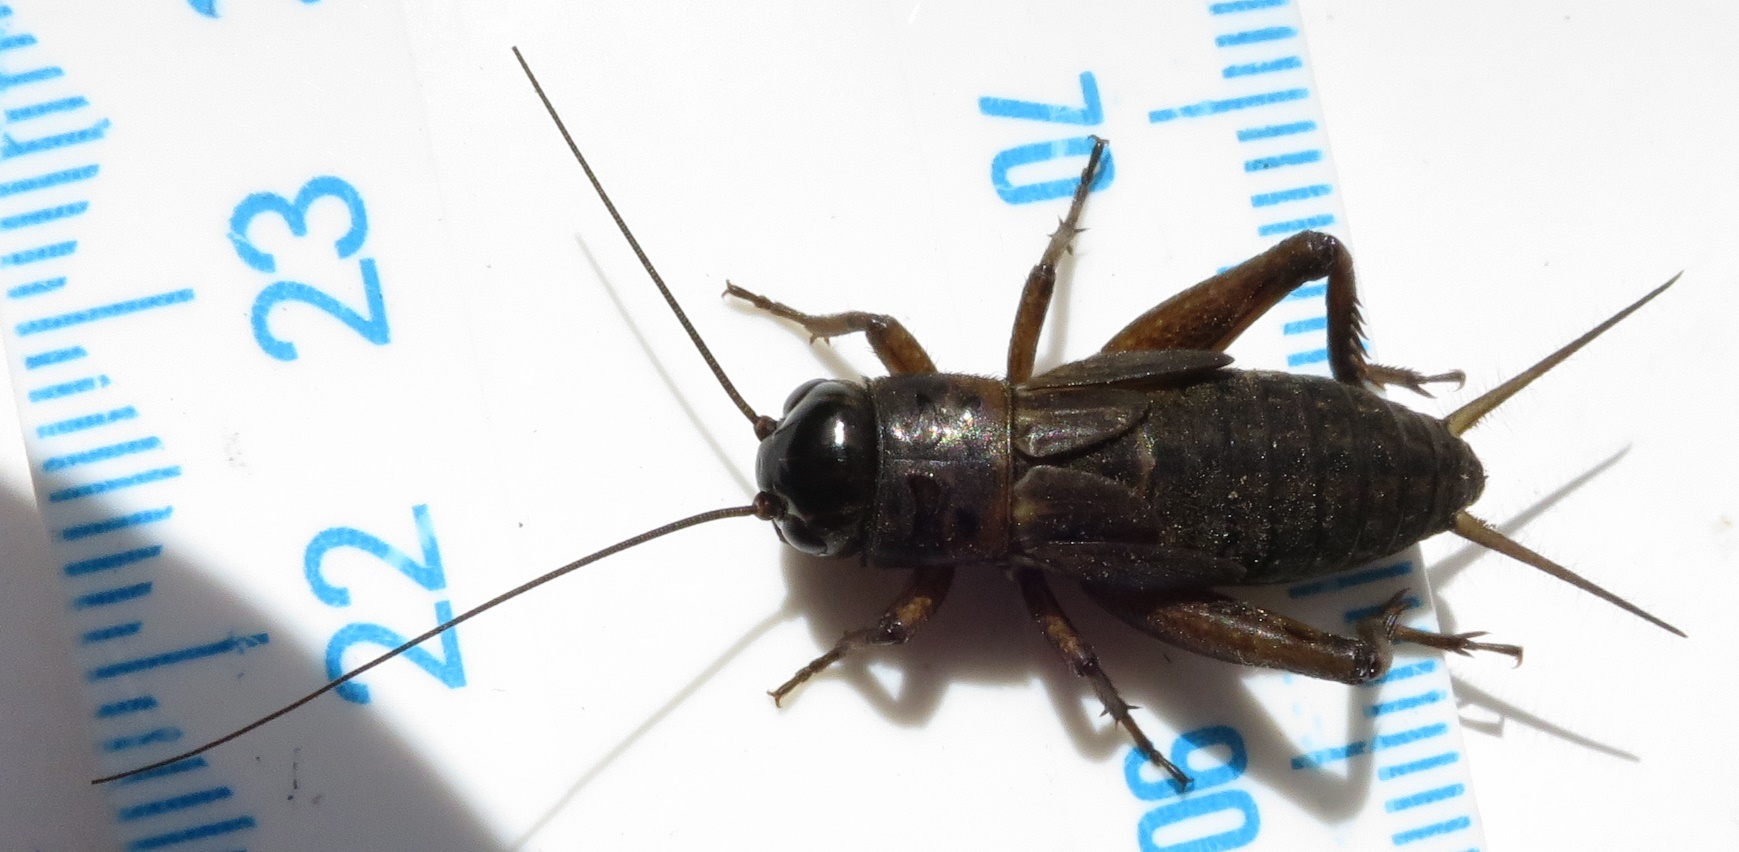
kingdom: Animalia
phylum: Arthropoda
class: Insecta
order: Orthoptera
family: Gryllidae
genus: Teleogryllus
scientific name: Teleogryllus commodus
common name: Black field cricket
